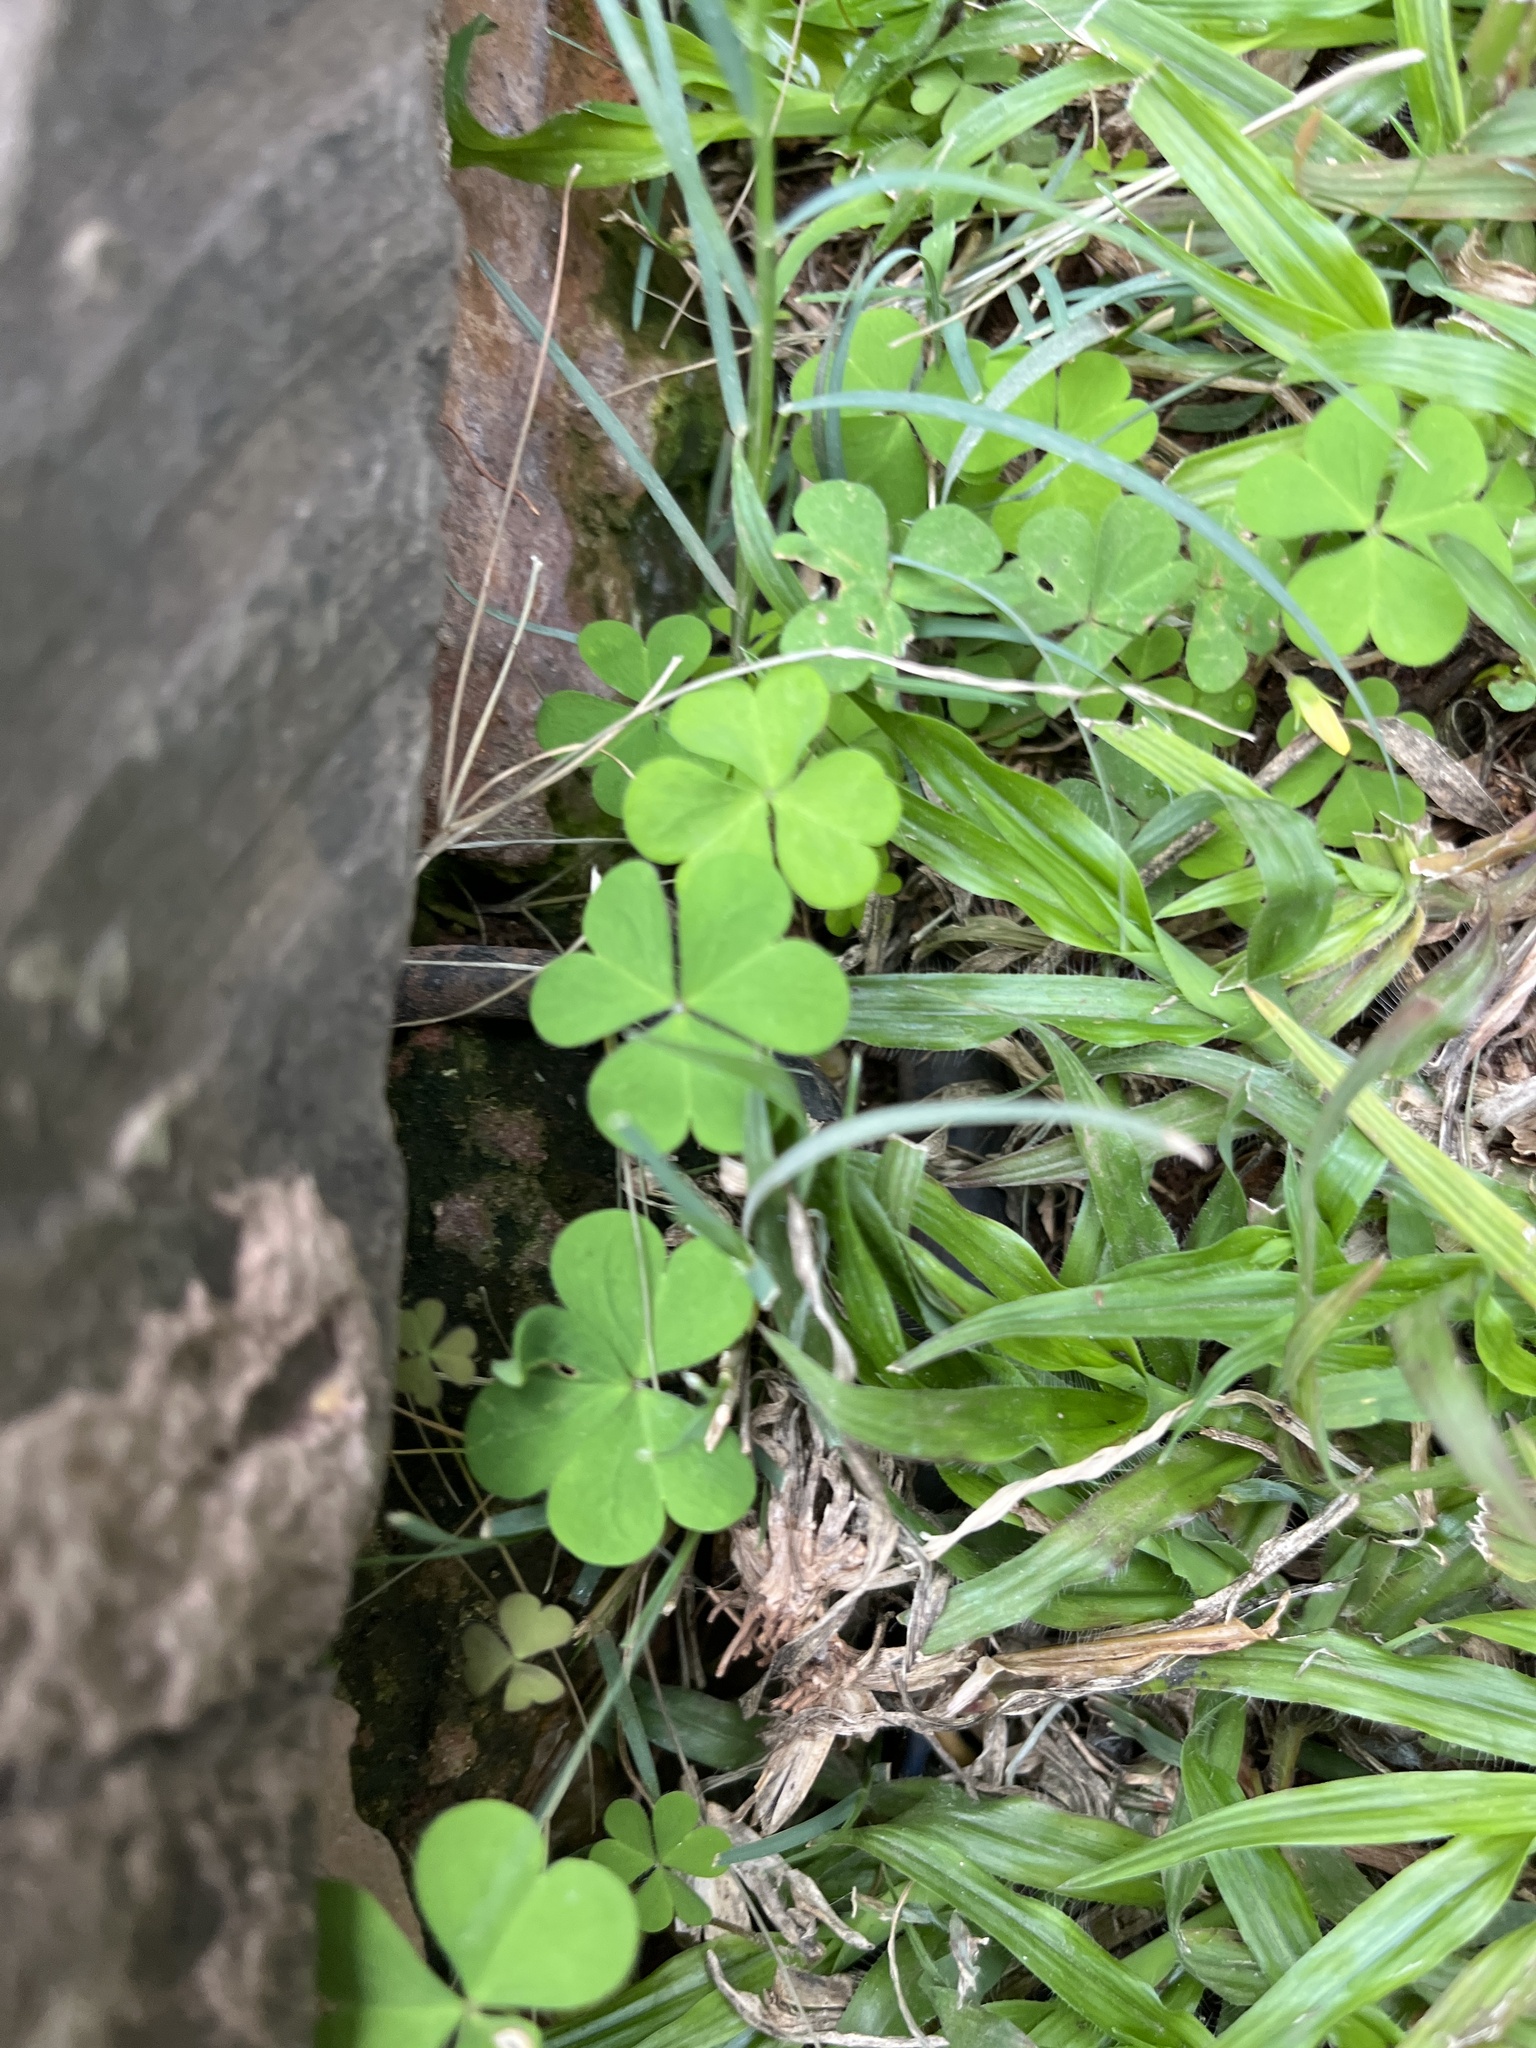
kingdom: Plantae
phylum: Tracheophyta
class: Magnoliopsida
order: Oxalidales
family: Oxalidaceae
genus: Oxalis
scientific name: Oxalis corniculata
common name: Procumbent yellow-sorrel
